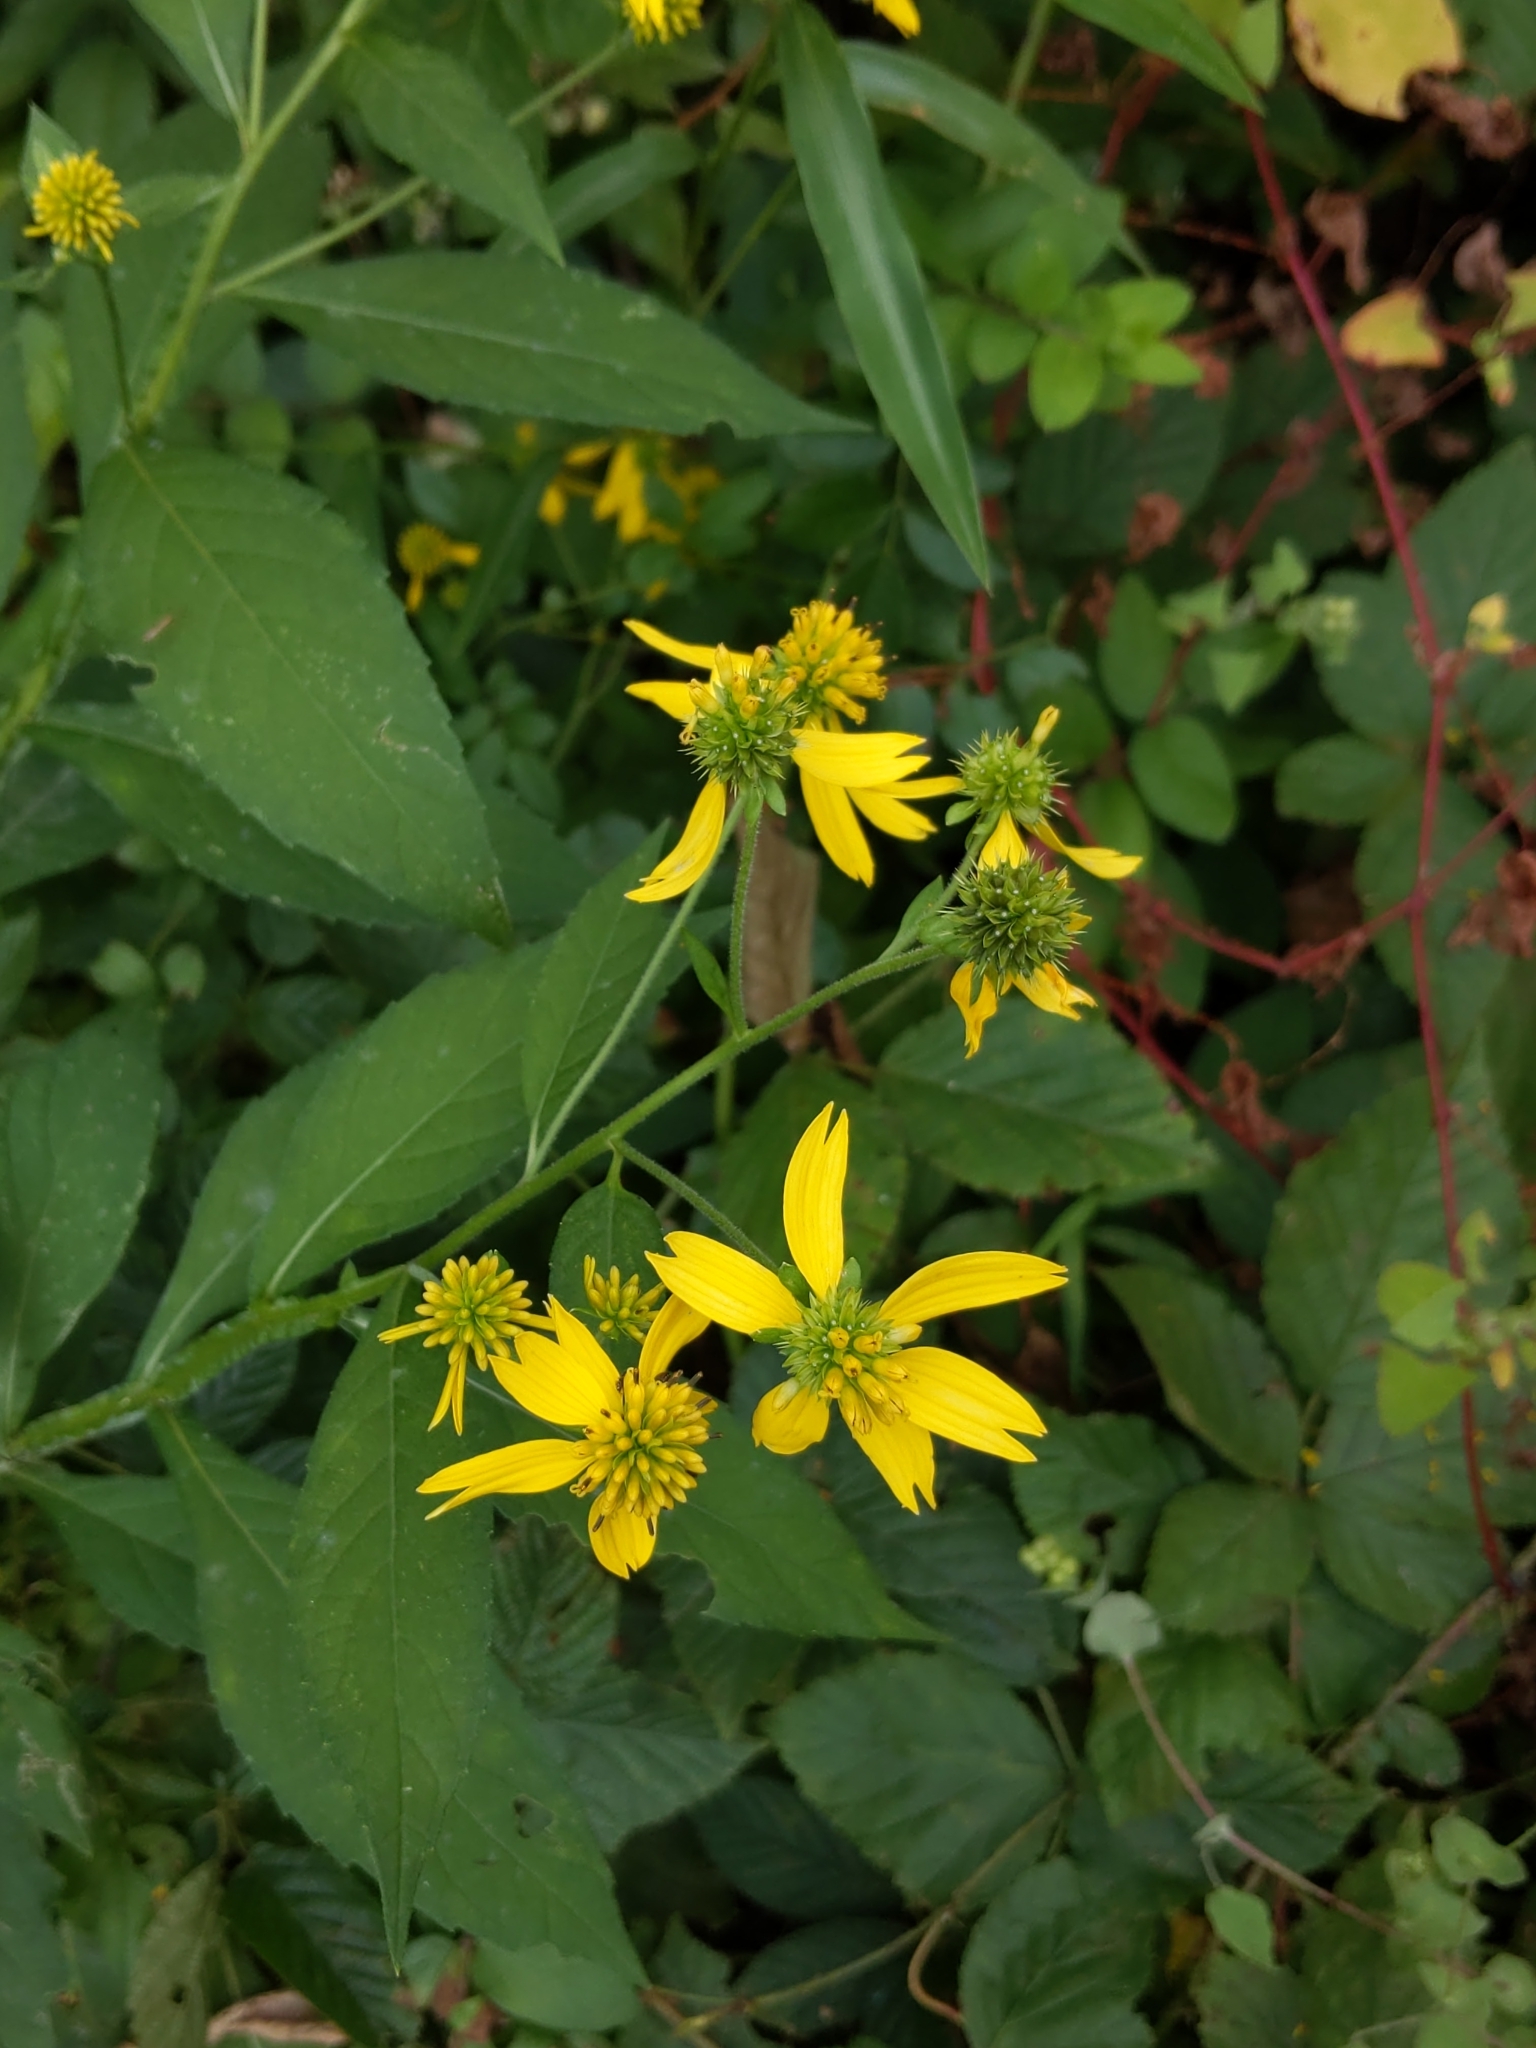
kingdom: Plantae
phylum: Tracheophyta
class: Magnoliopsida
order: Asterales
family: Asteraceae
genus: Verbesina
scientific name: Verbesina alternifolia
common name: Wingstem
